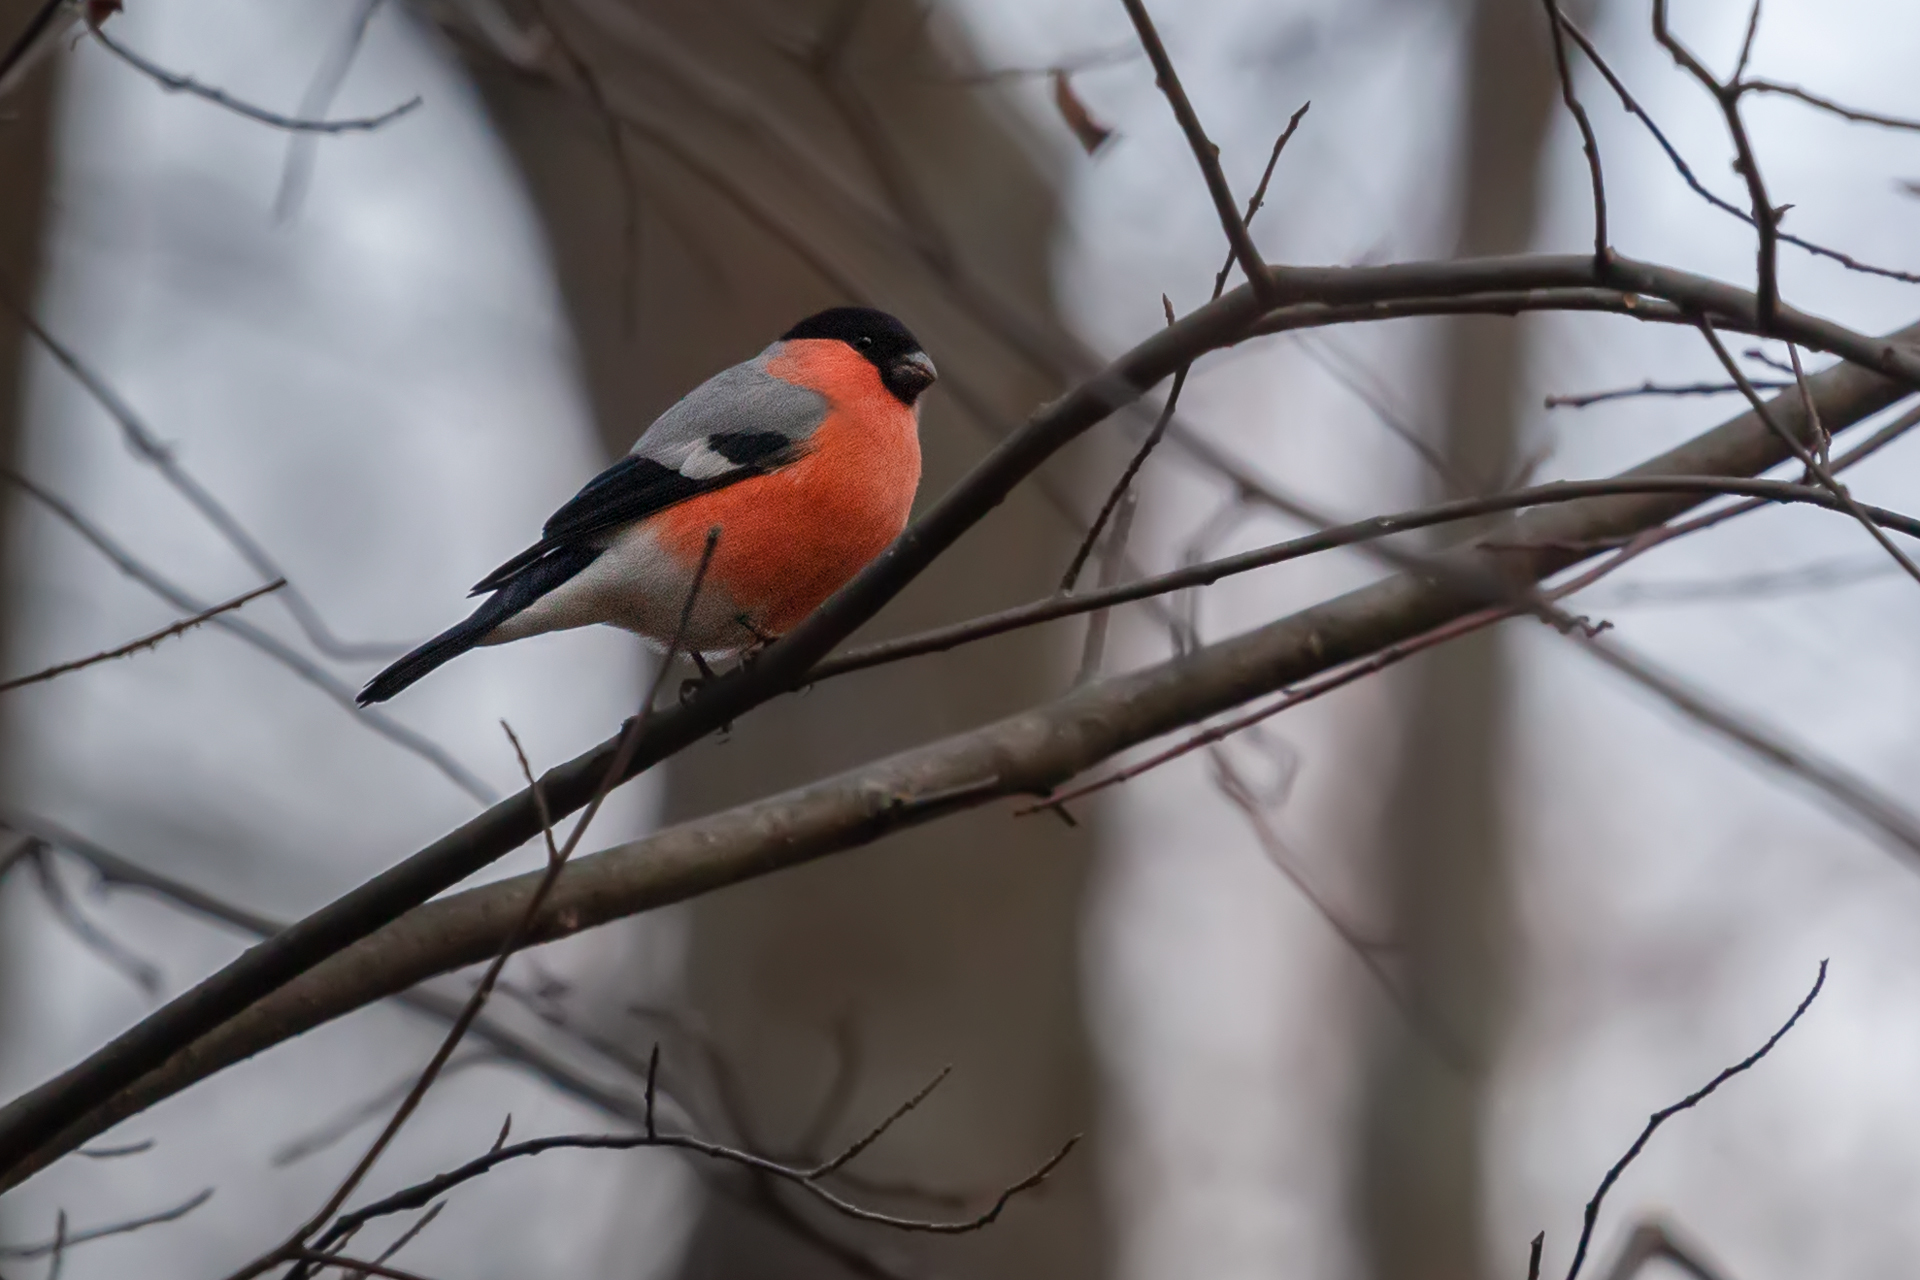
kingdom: Animalia
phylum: Chordata
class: Aves
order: Passeriformes
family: Fringillidae
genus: Pyrrhula
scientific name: Pyrrhula pyrrhula
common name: Eurasian bullfinch
